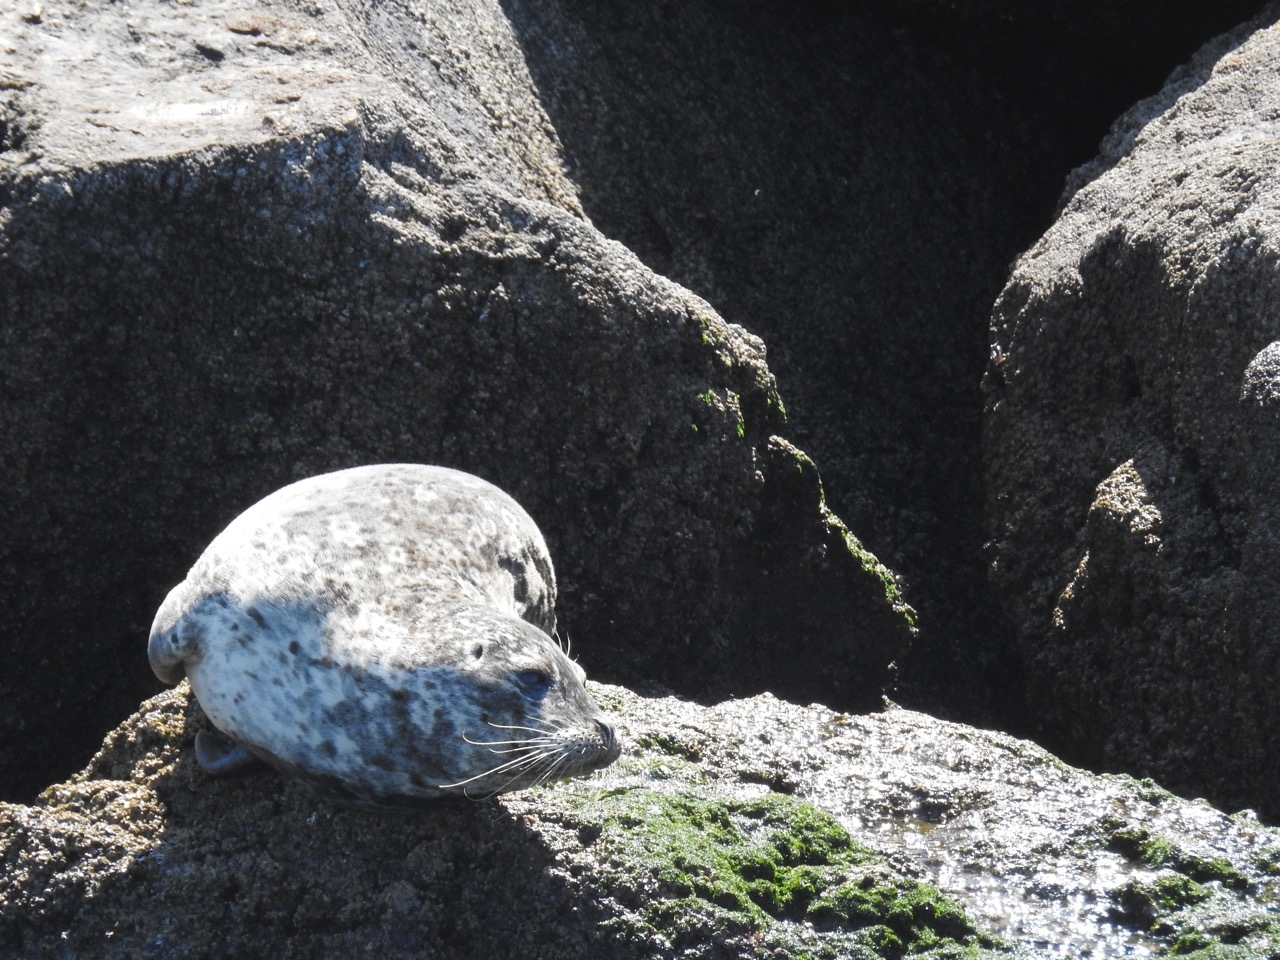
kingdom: Animalia
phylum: Chordata
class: Mammalia
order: Carnivora
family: Phocidae
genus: Phoca
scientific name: Phoca vitulina
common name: Harbor seal
